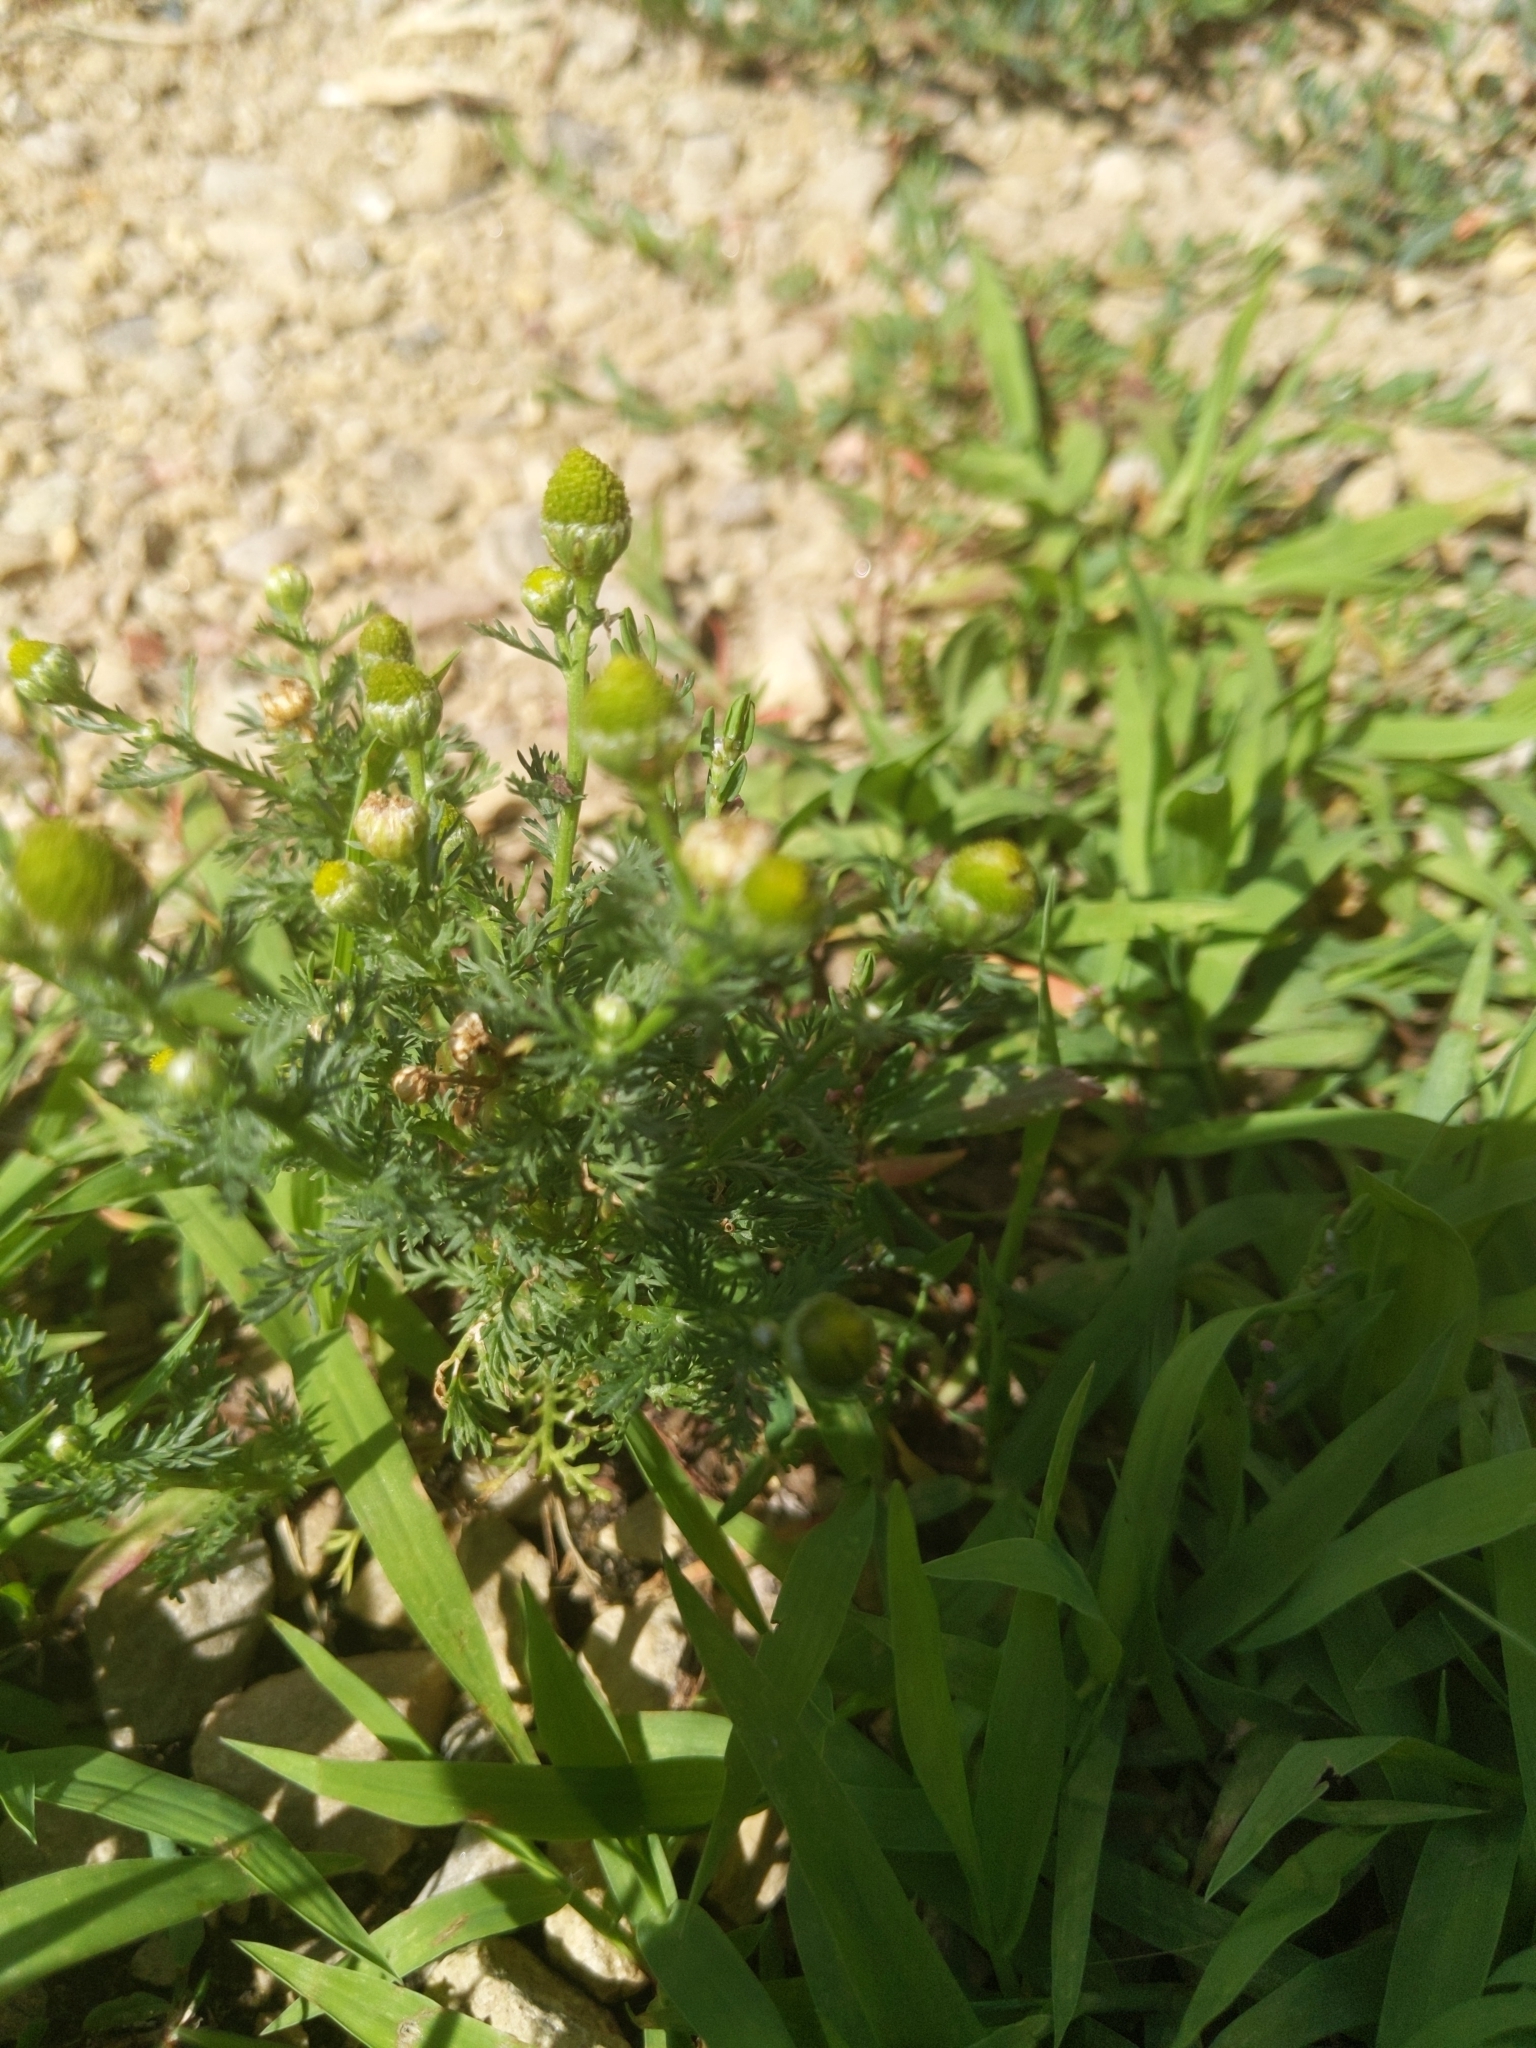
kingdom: Plantae
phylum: Tracheophyta
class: Magnoliopsida
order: Asterales
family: Asteraceae
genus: Matricaria
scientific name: Matricaria discoidea
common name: Disc mayweed
